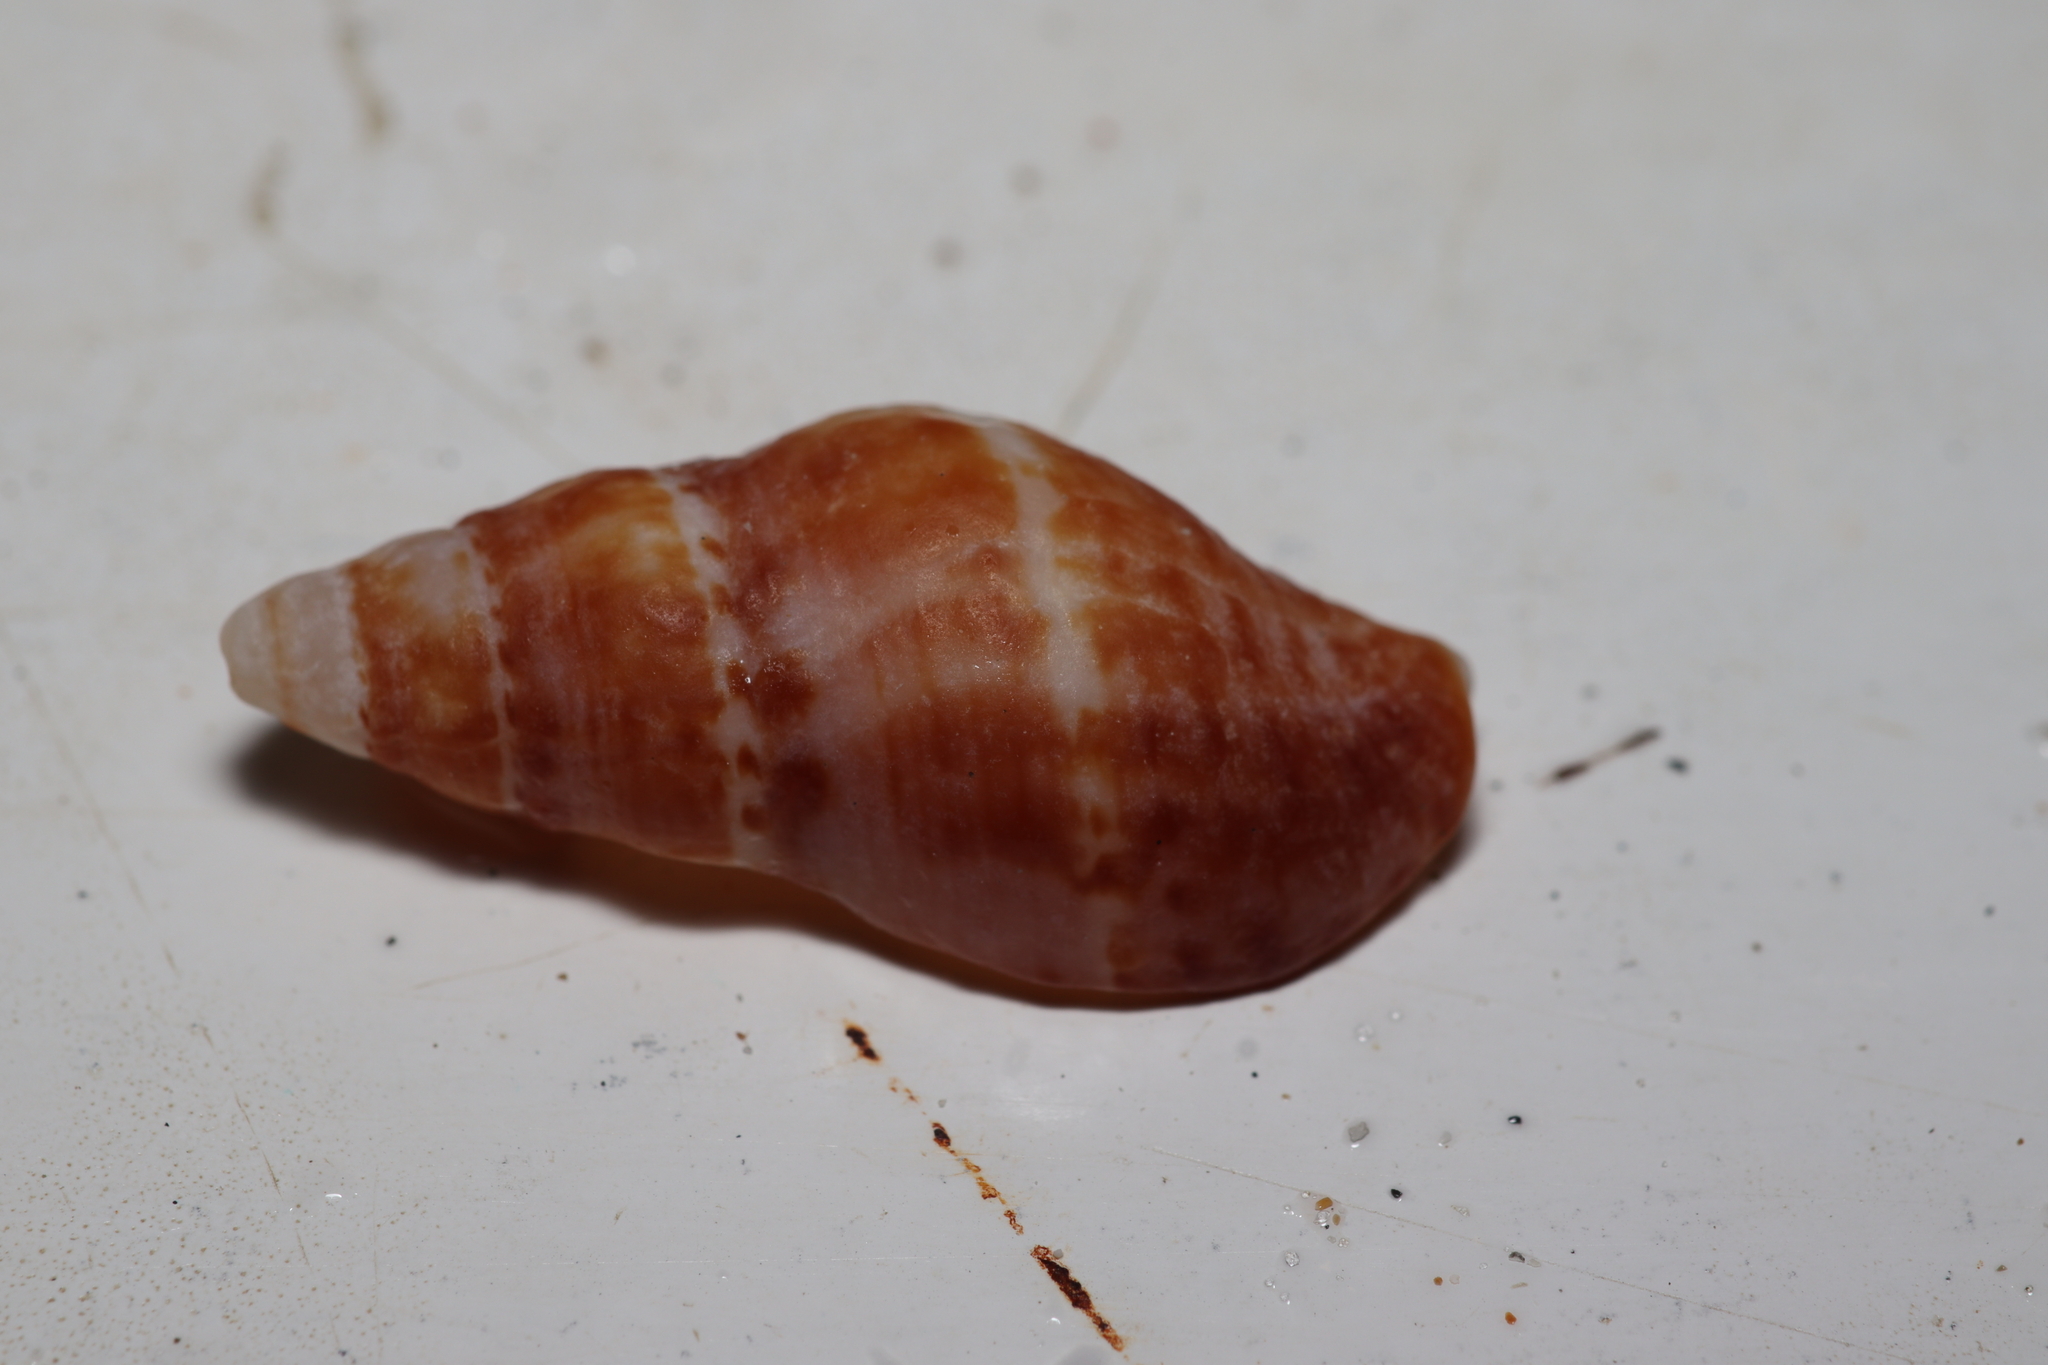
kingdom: Animalia
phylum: Mollusca
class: Gastropoda
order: Neogastropoda
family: Pisaniidae
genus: Pisania
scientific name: Pisania pusio
